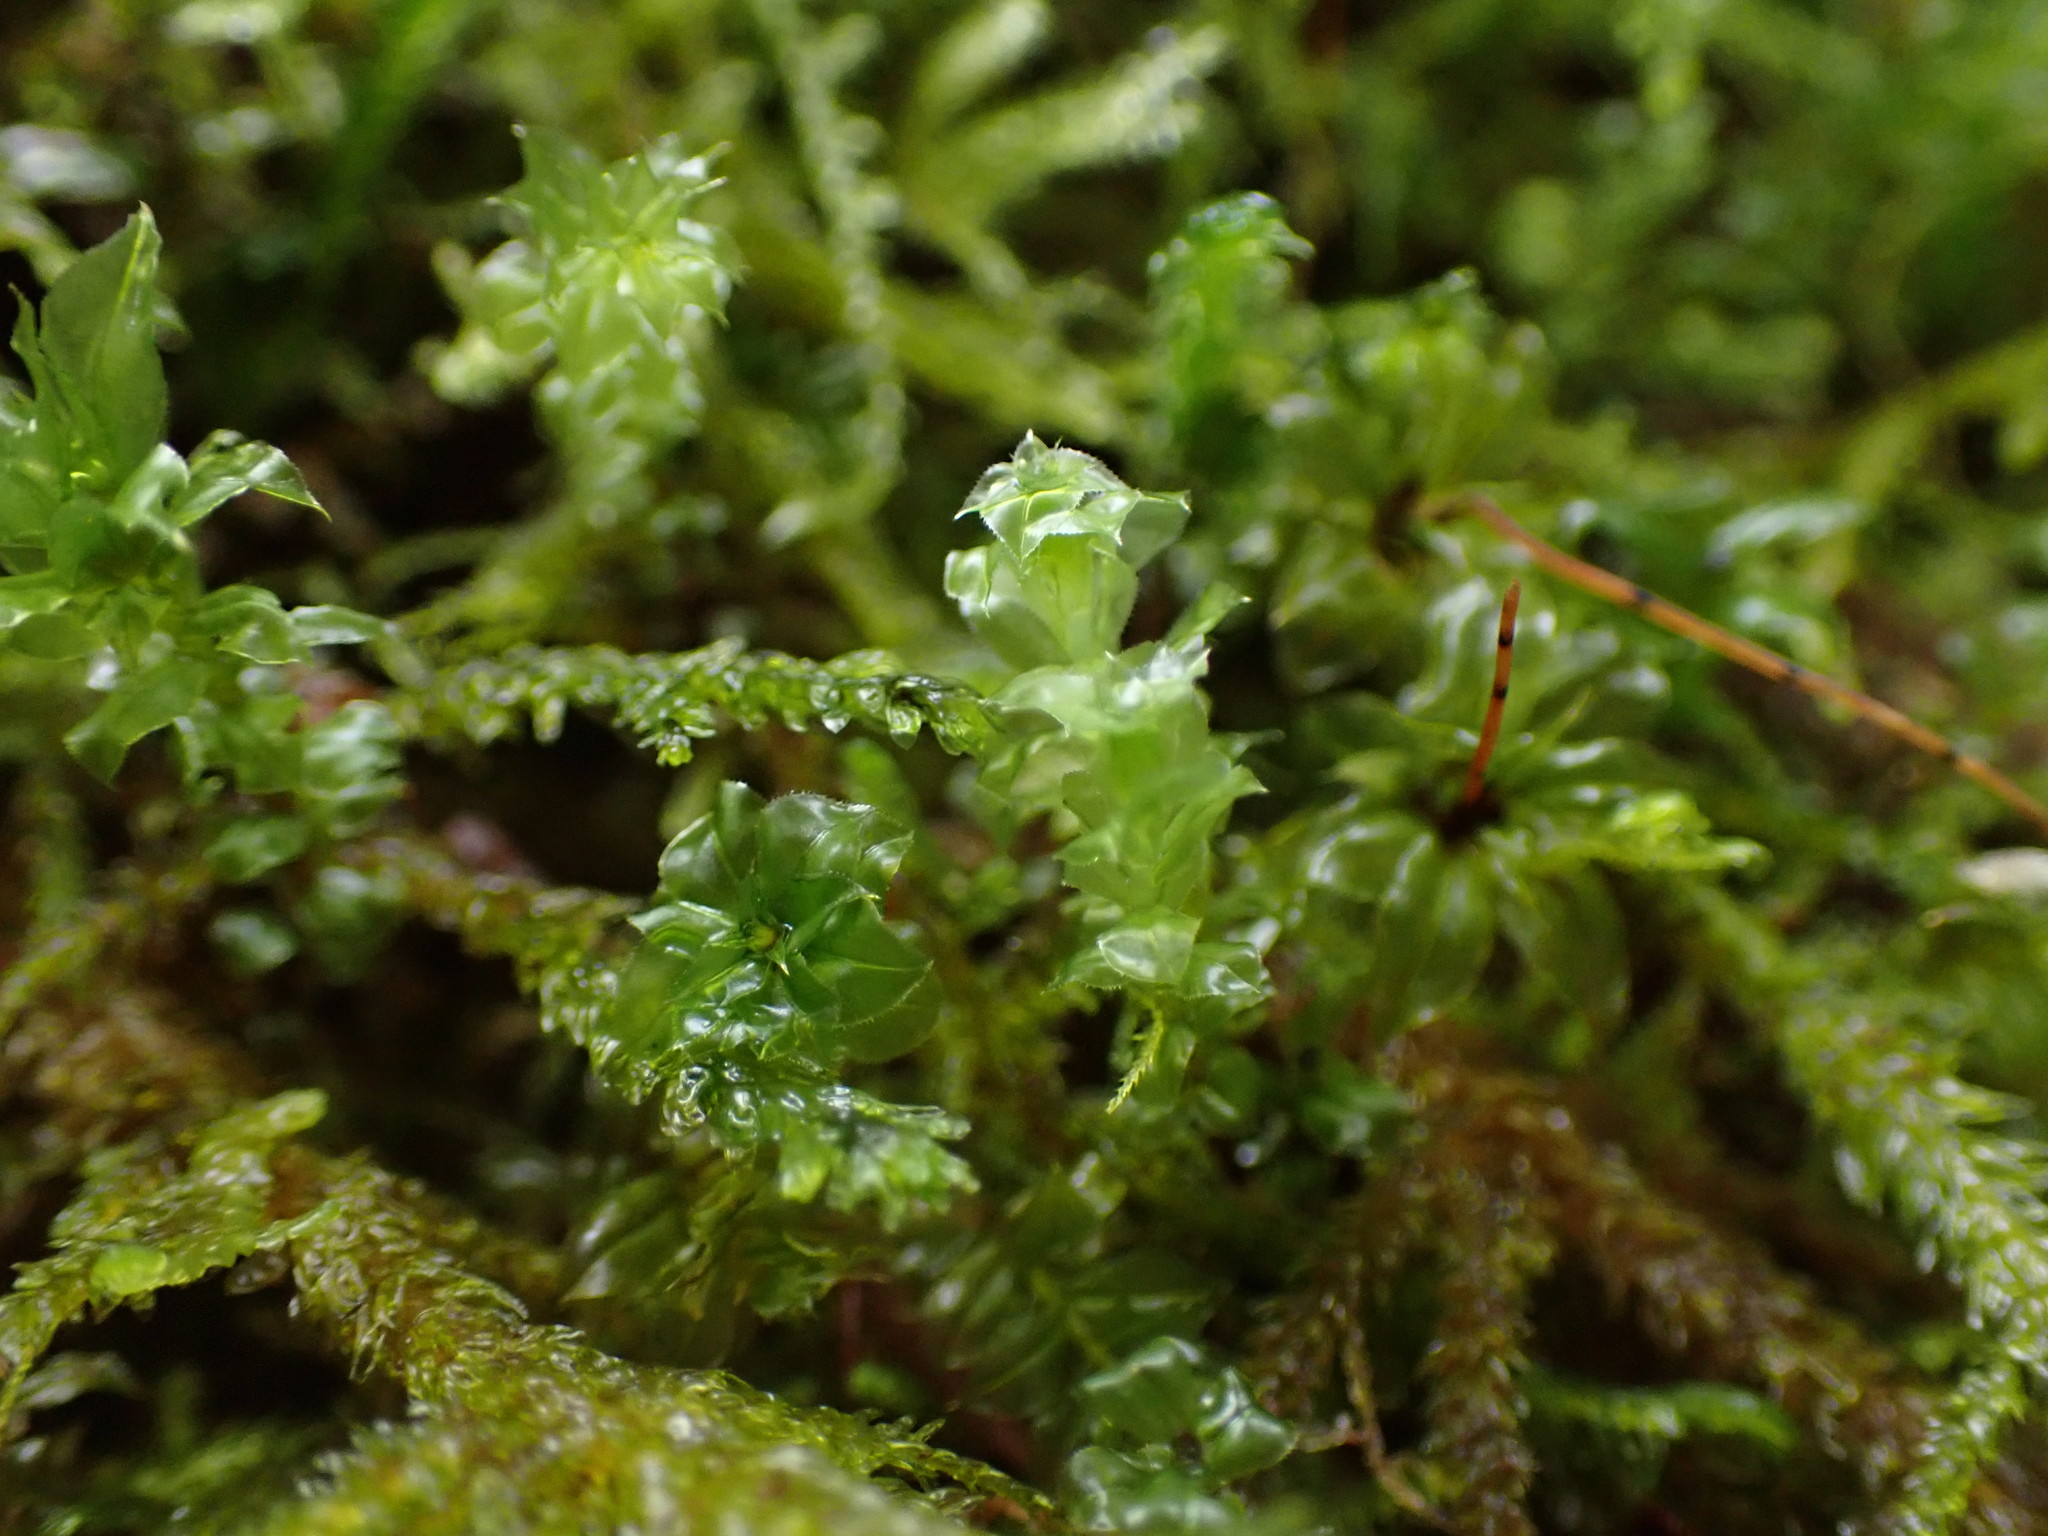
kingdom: Plantae
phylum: Bryophyta
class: Bryopsida
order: Bryales
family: Mniaceae
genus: Plagiomnium
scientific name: Plagiomnium venustum
